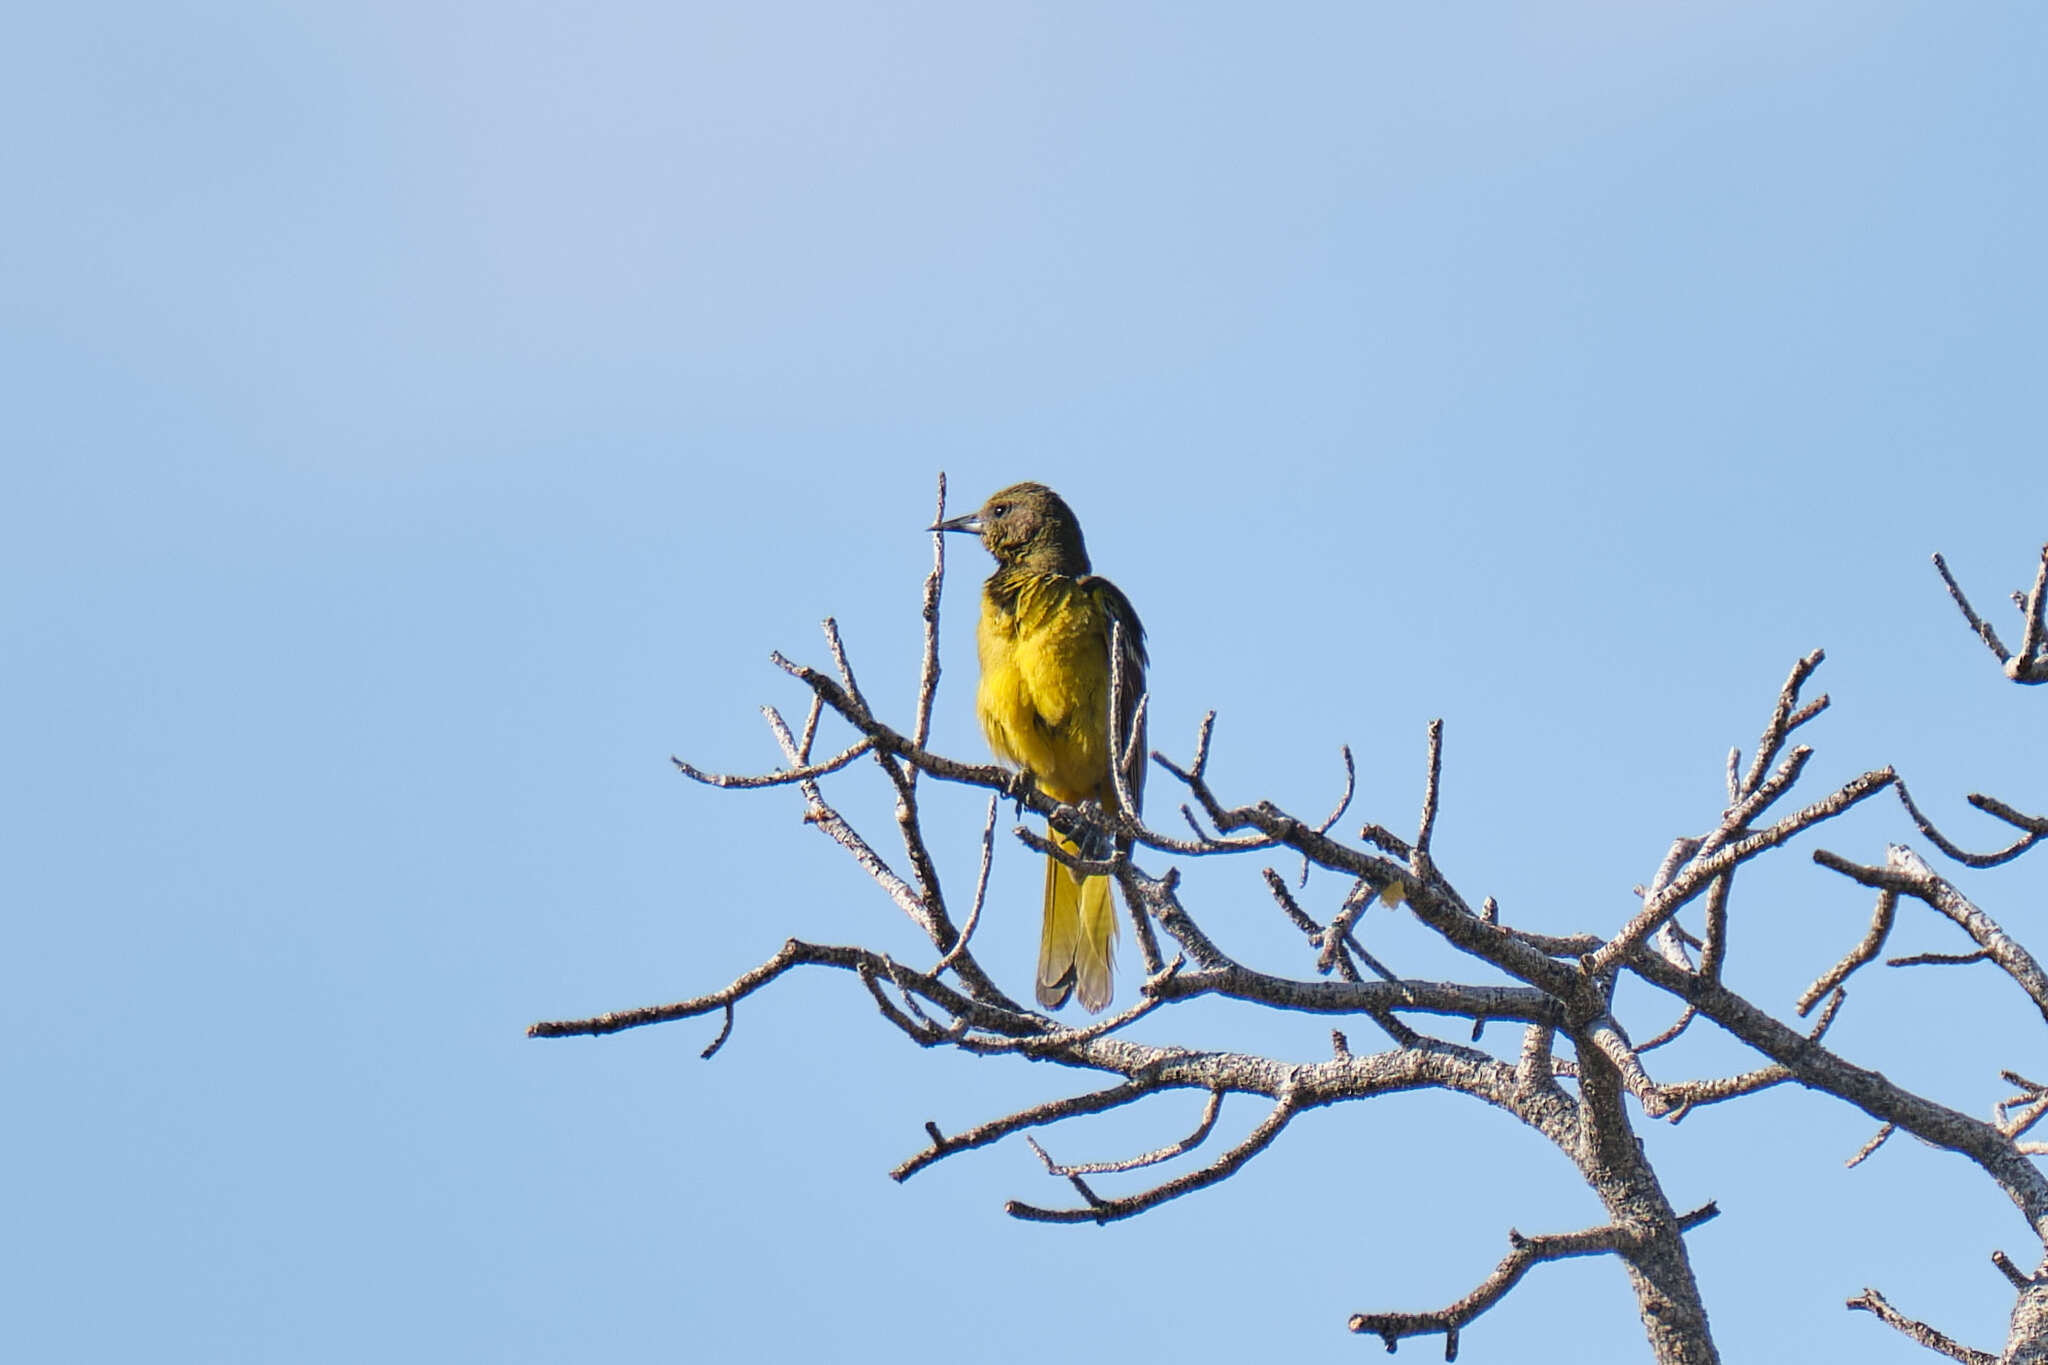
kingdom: Animalia
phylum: Chordata
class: Aves
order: Passeriformes
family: Icteridae
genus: Icterus
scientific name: Icterus parisorum
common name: Scott's oriole
